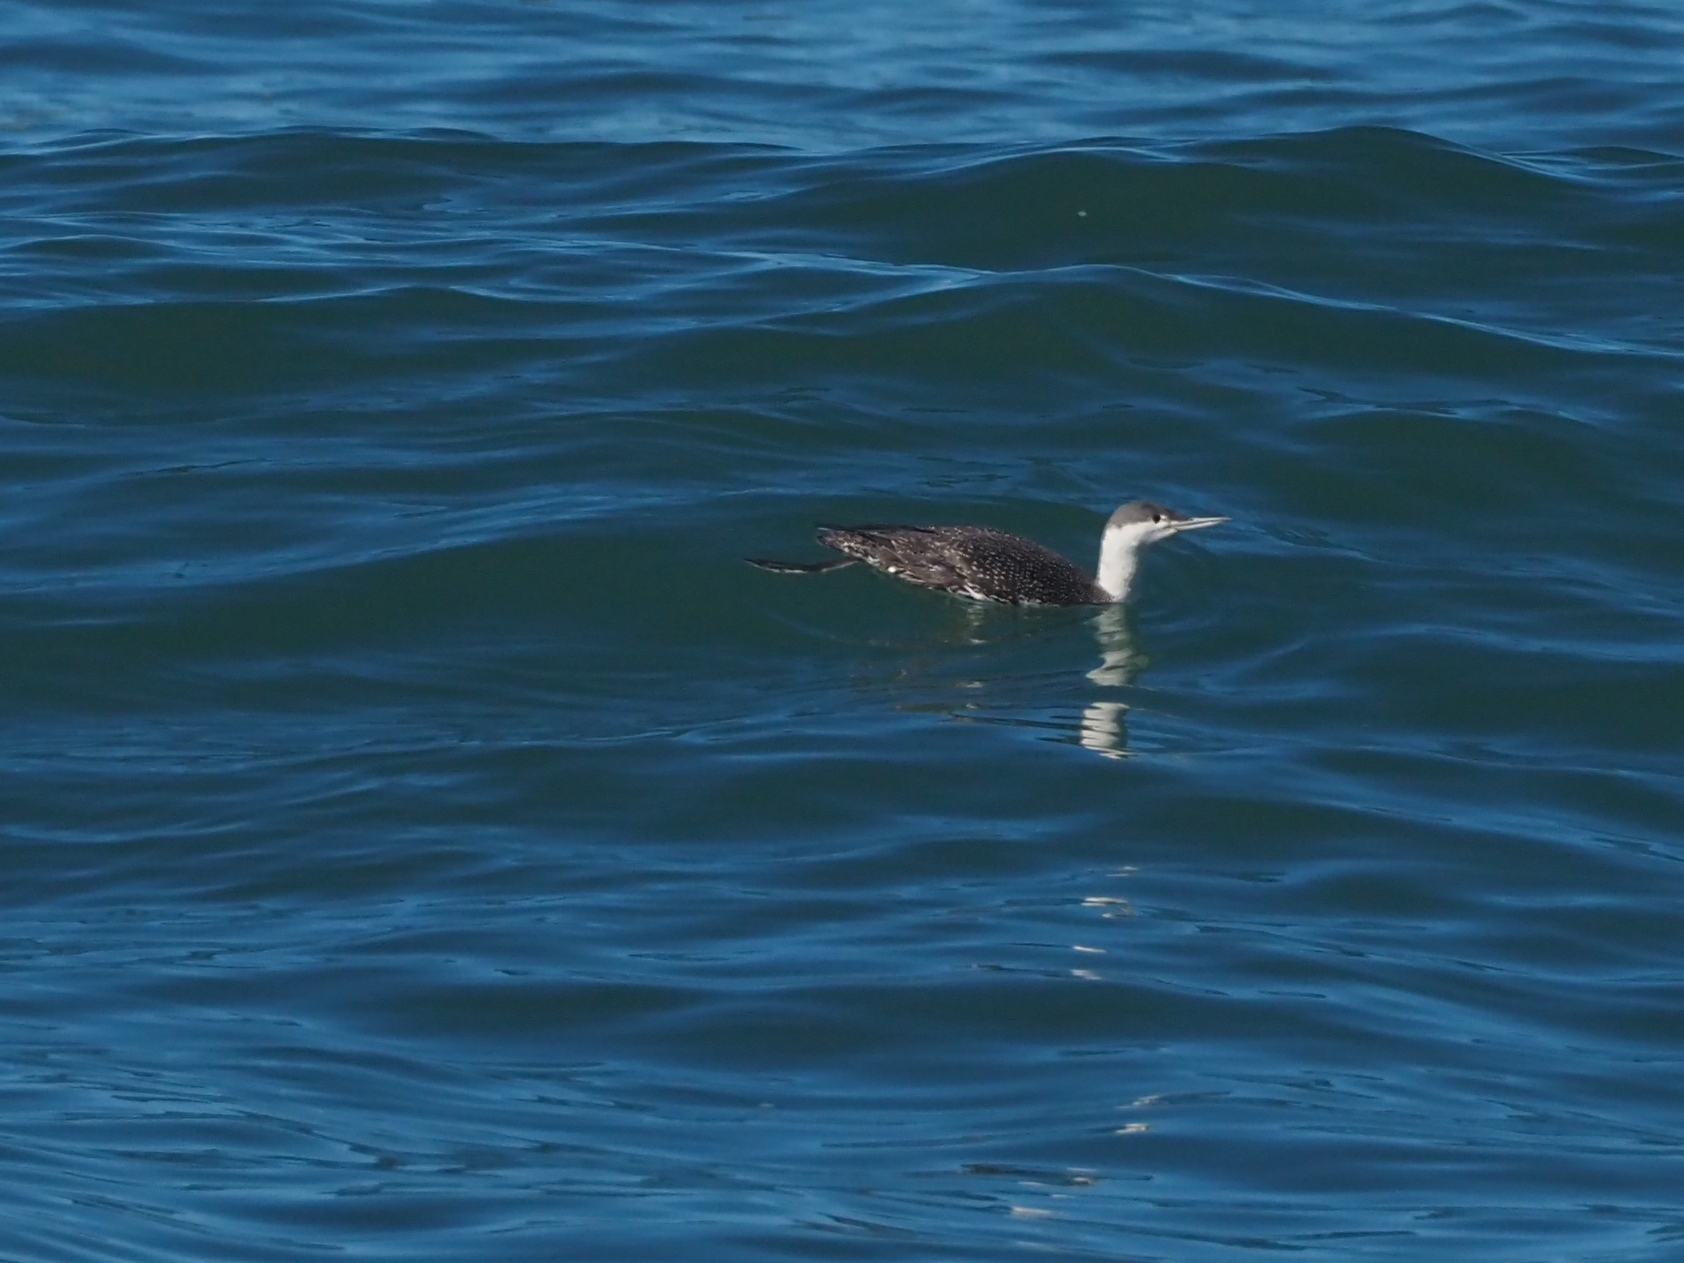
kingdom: Animalia
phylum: Chordata
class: Aves
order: Gaviiformes
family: Gaviidae
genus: Gavia
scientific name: Gavia stellata
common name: Red-throated loon
